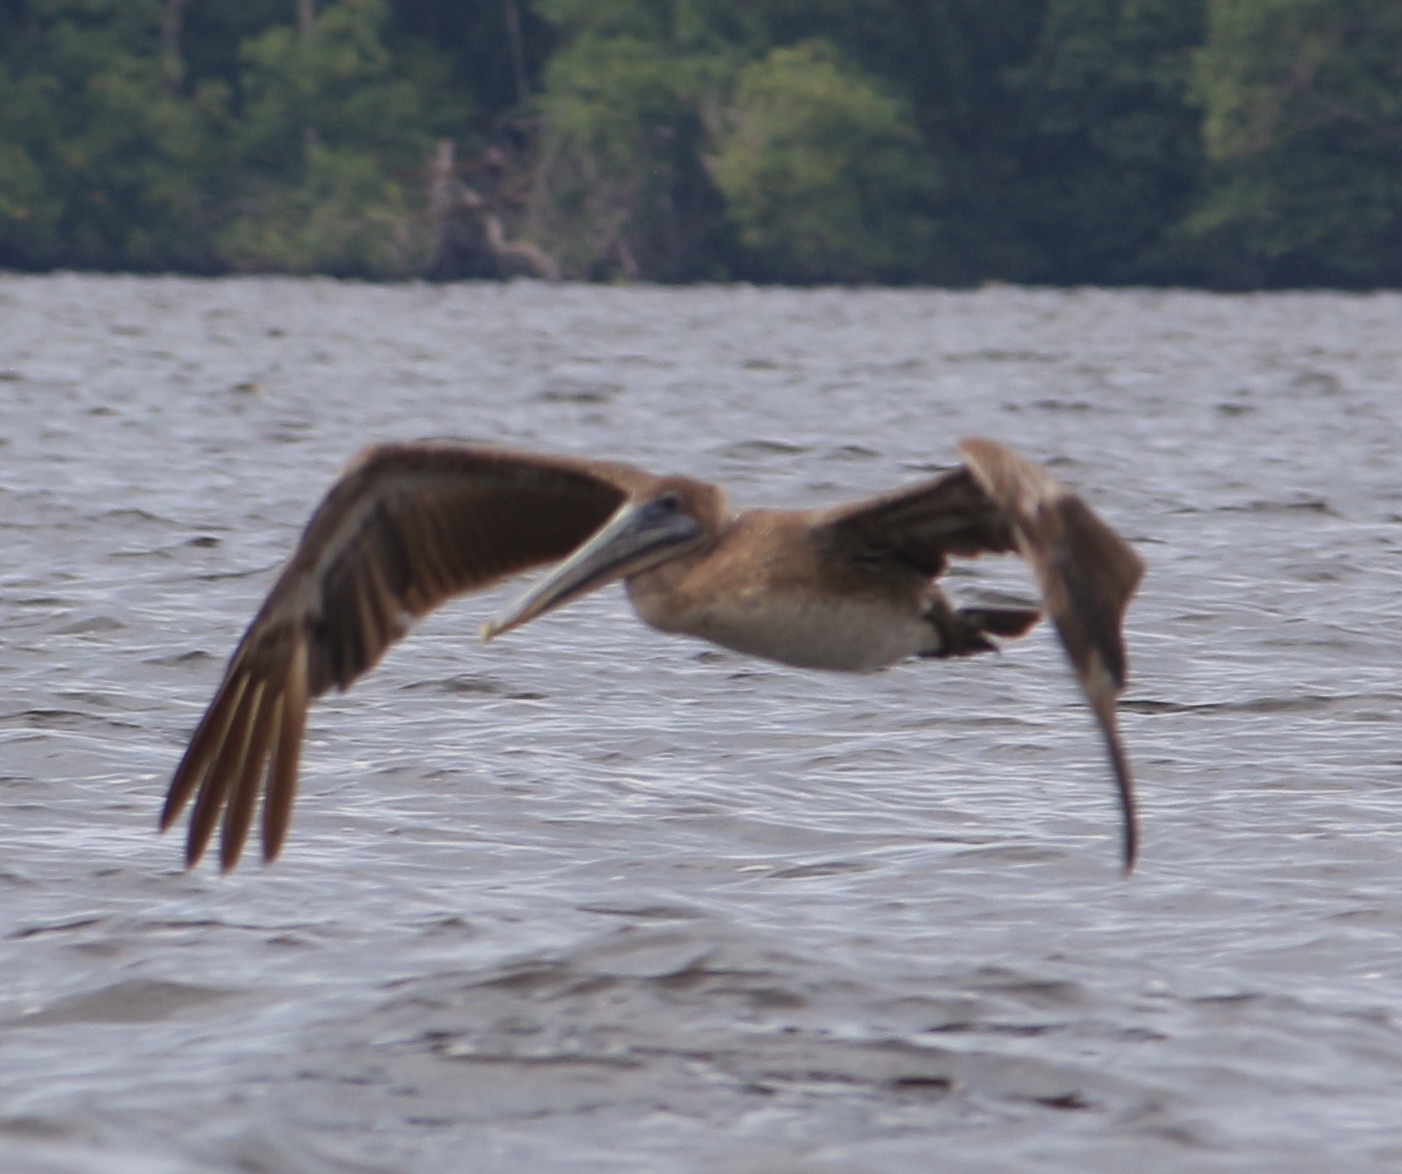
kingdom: Animalia
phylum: Chordata
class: Aves
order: Pelecaniformes
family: Pelecanidae
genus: Pelecanus
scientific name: Pelecanus occidentalis
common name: Brown pelican
